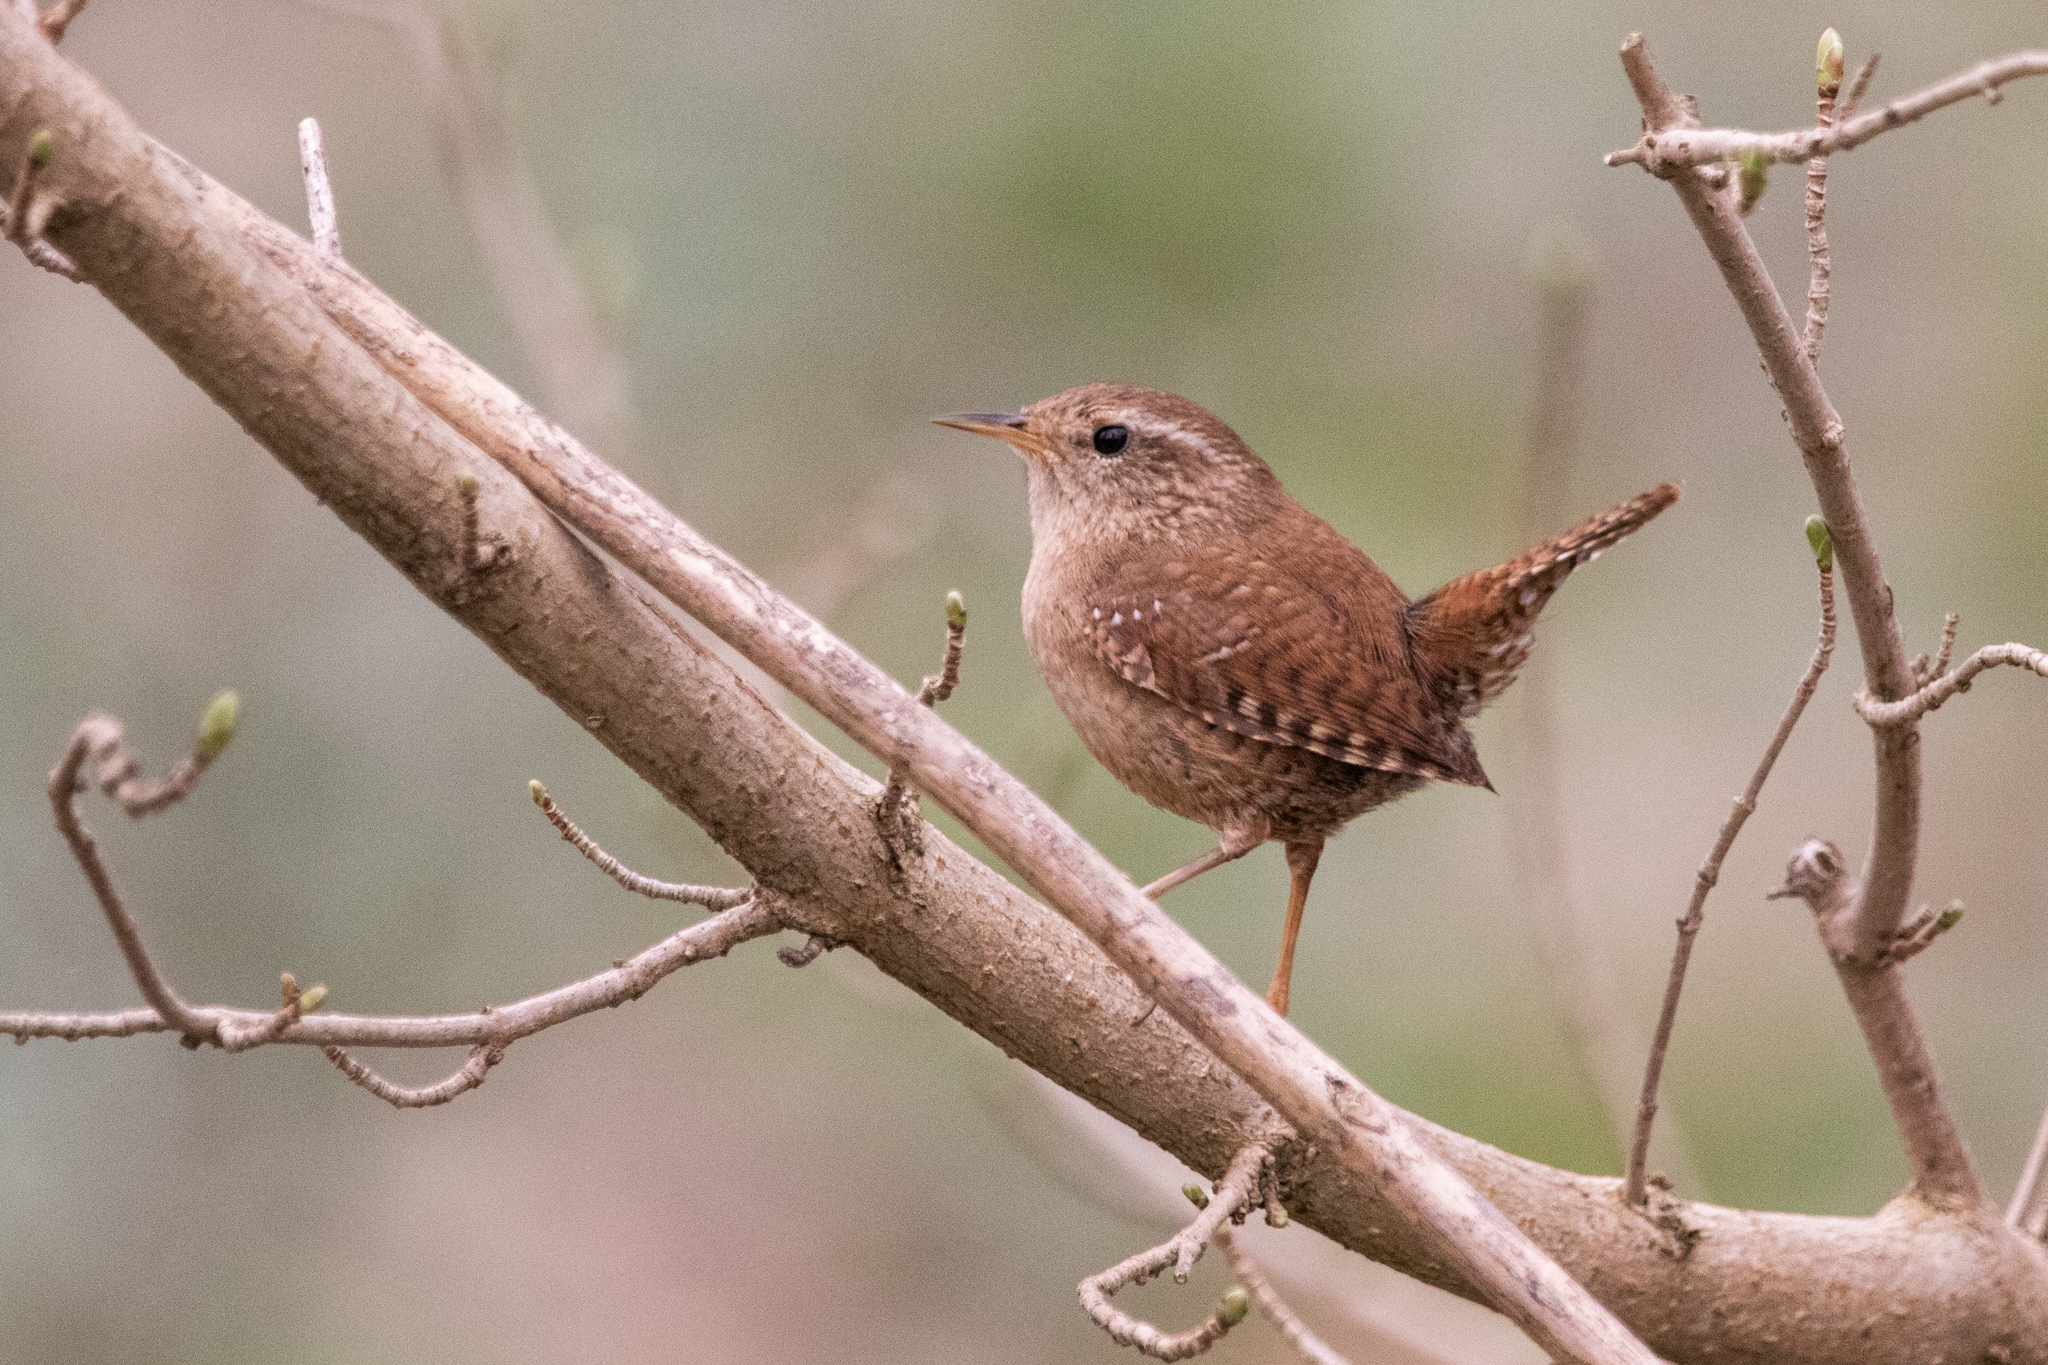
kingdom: Animalia
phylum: Chordata
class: Aves
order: Passeriformes
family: Troglodytidae
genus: Troglodytes
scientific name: Troglodytes troglodytes
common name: Eurasian wren
